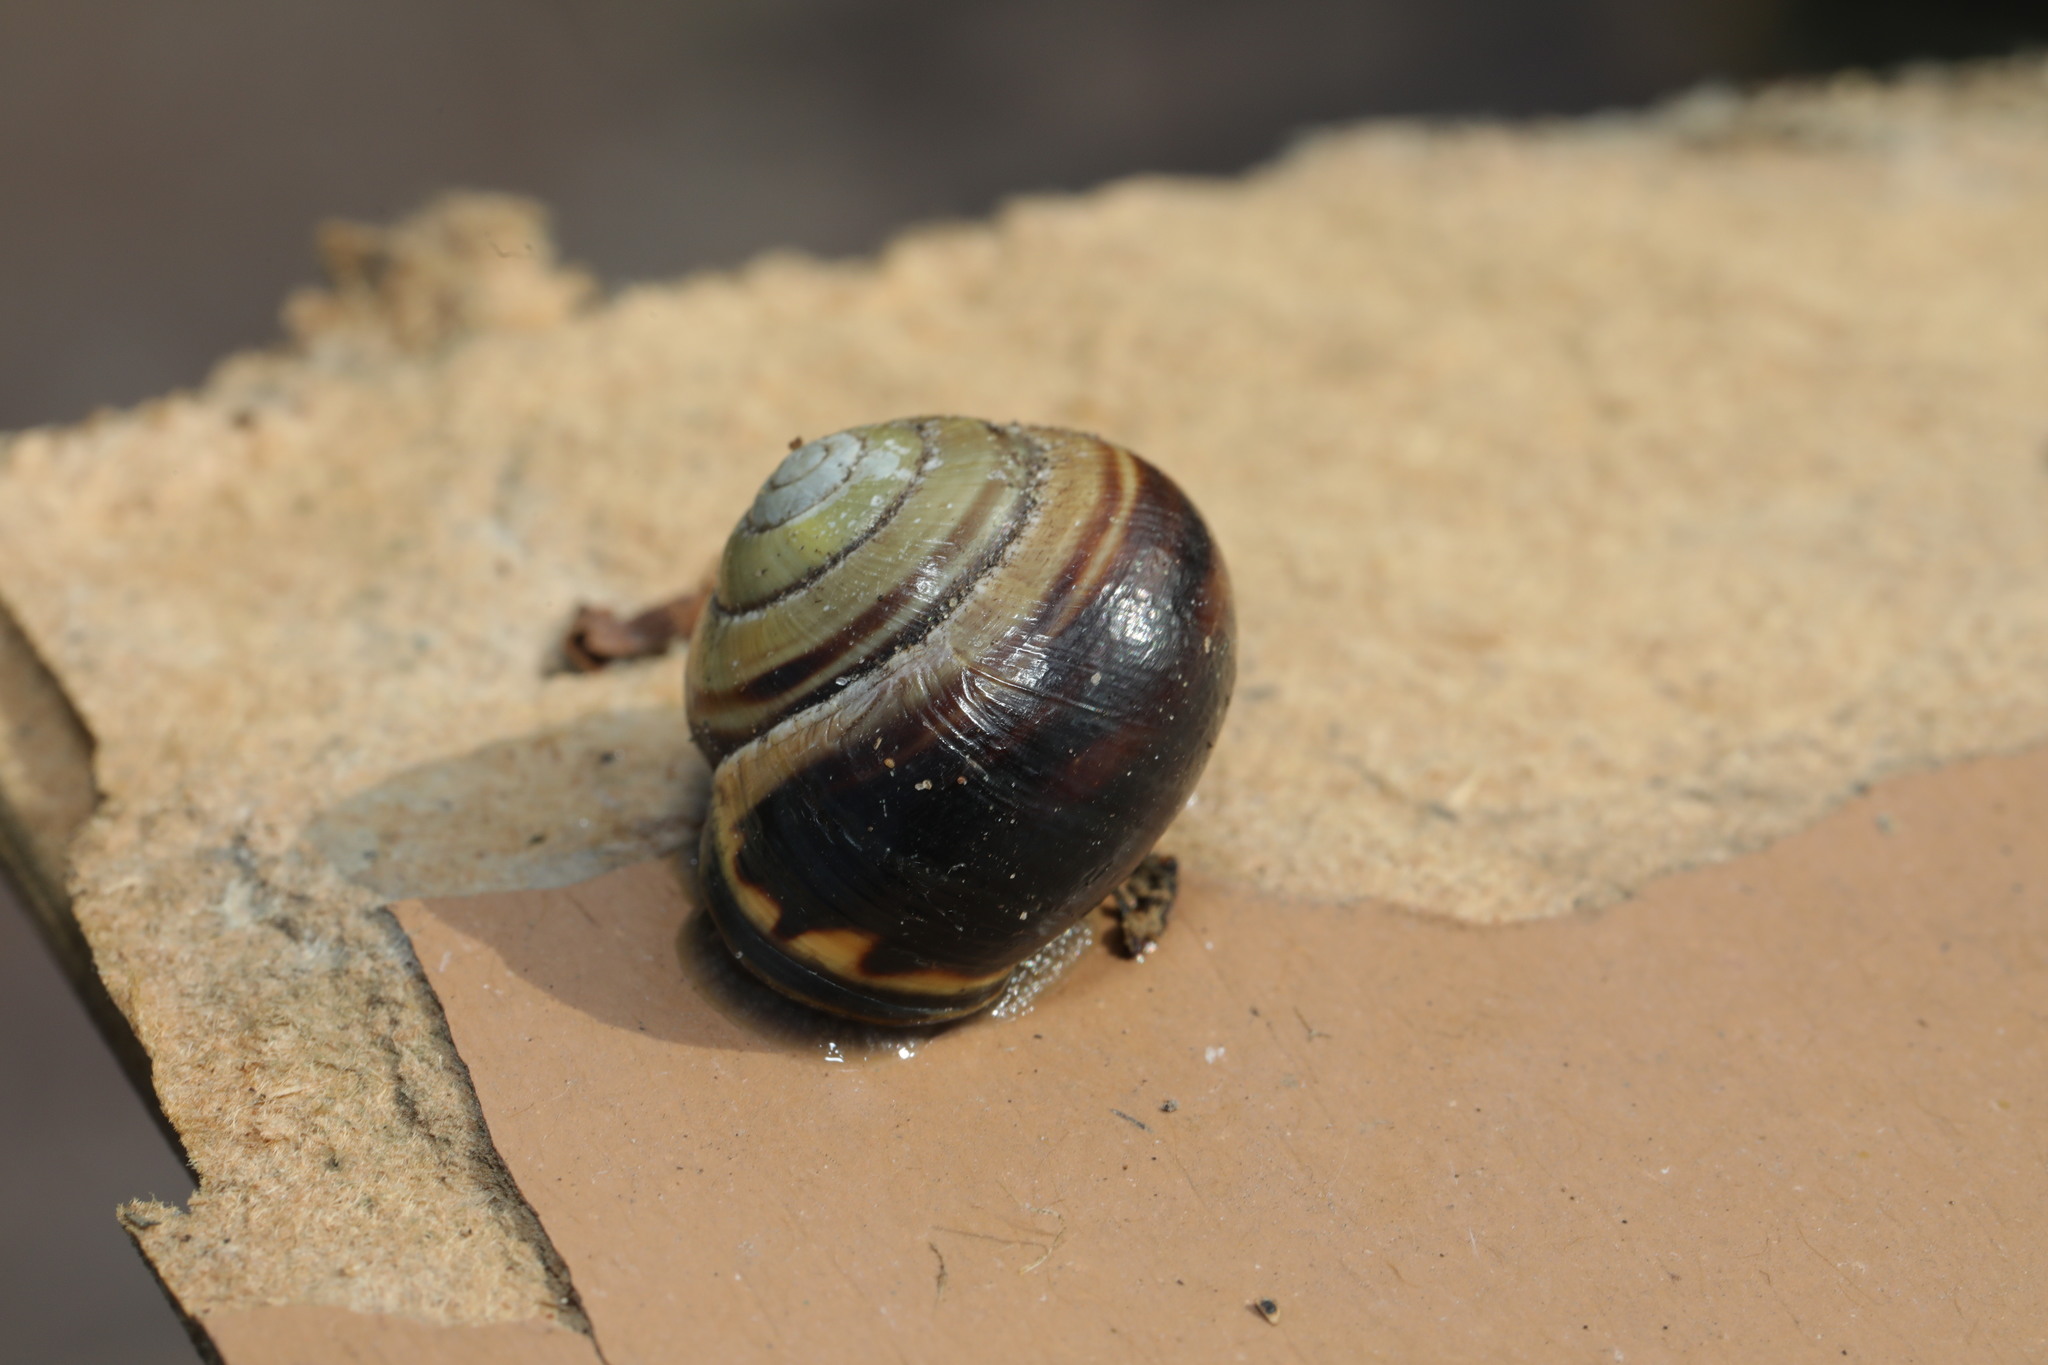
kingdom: Animalia
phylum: Mollusca
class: Gastropoda
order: Stylommatophora
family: Helicidae
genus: Cepaea
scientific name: Cepaea nemoralis
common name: Grovesnail
